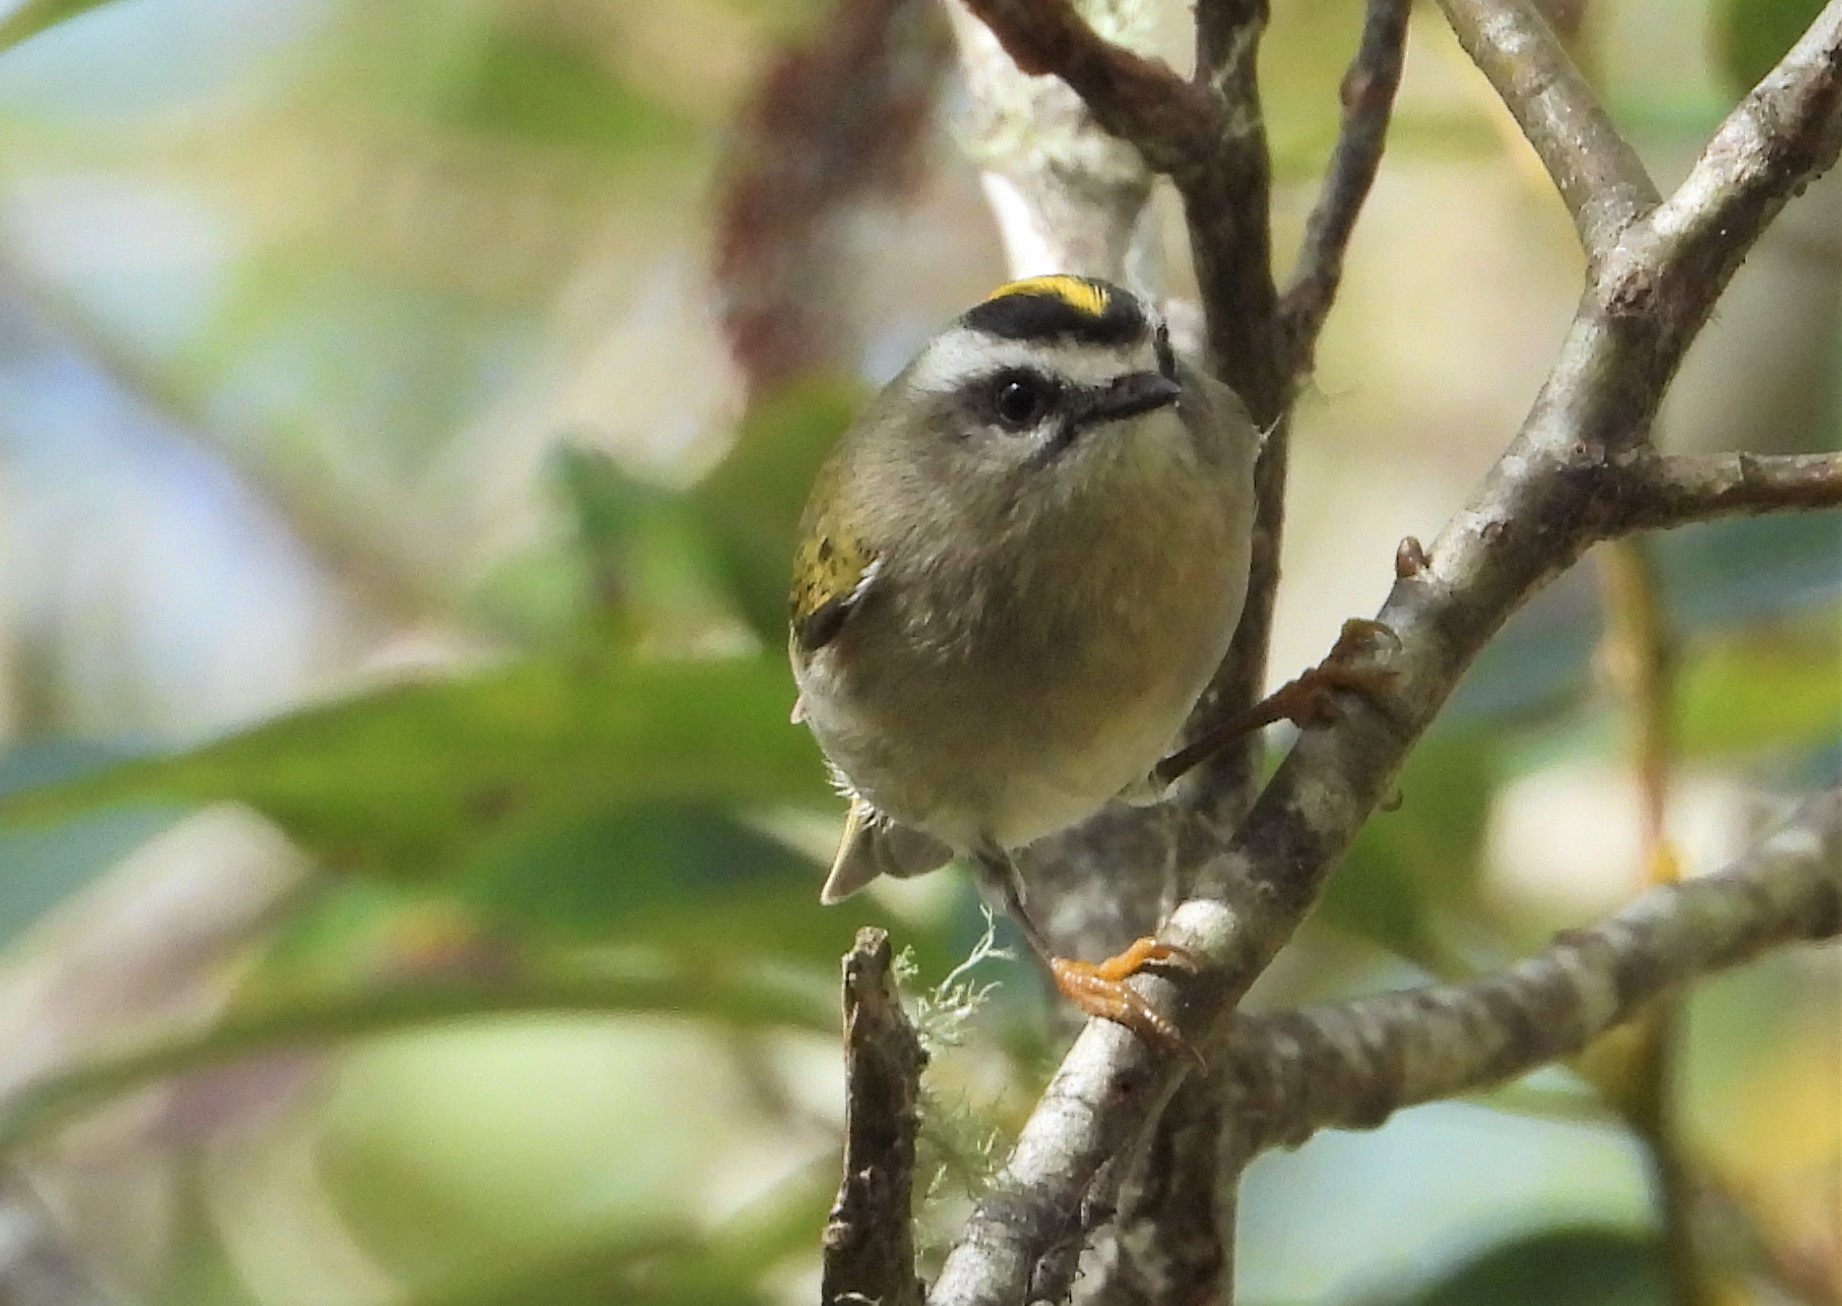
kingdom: Animalia
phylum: Chordata
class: Aves
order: Passeriformes
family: Regulidae
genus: Regulus
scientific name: Regulus satrapa
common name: Golden-crowned kinglet
